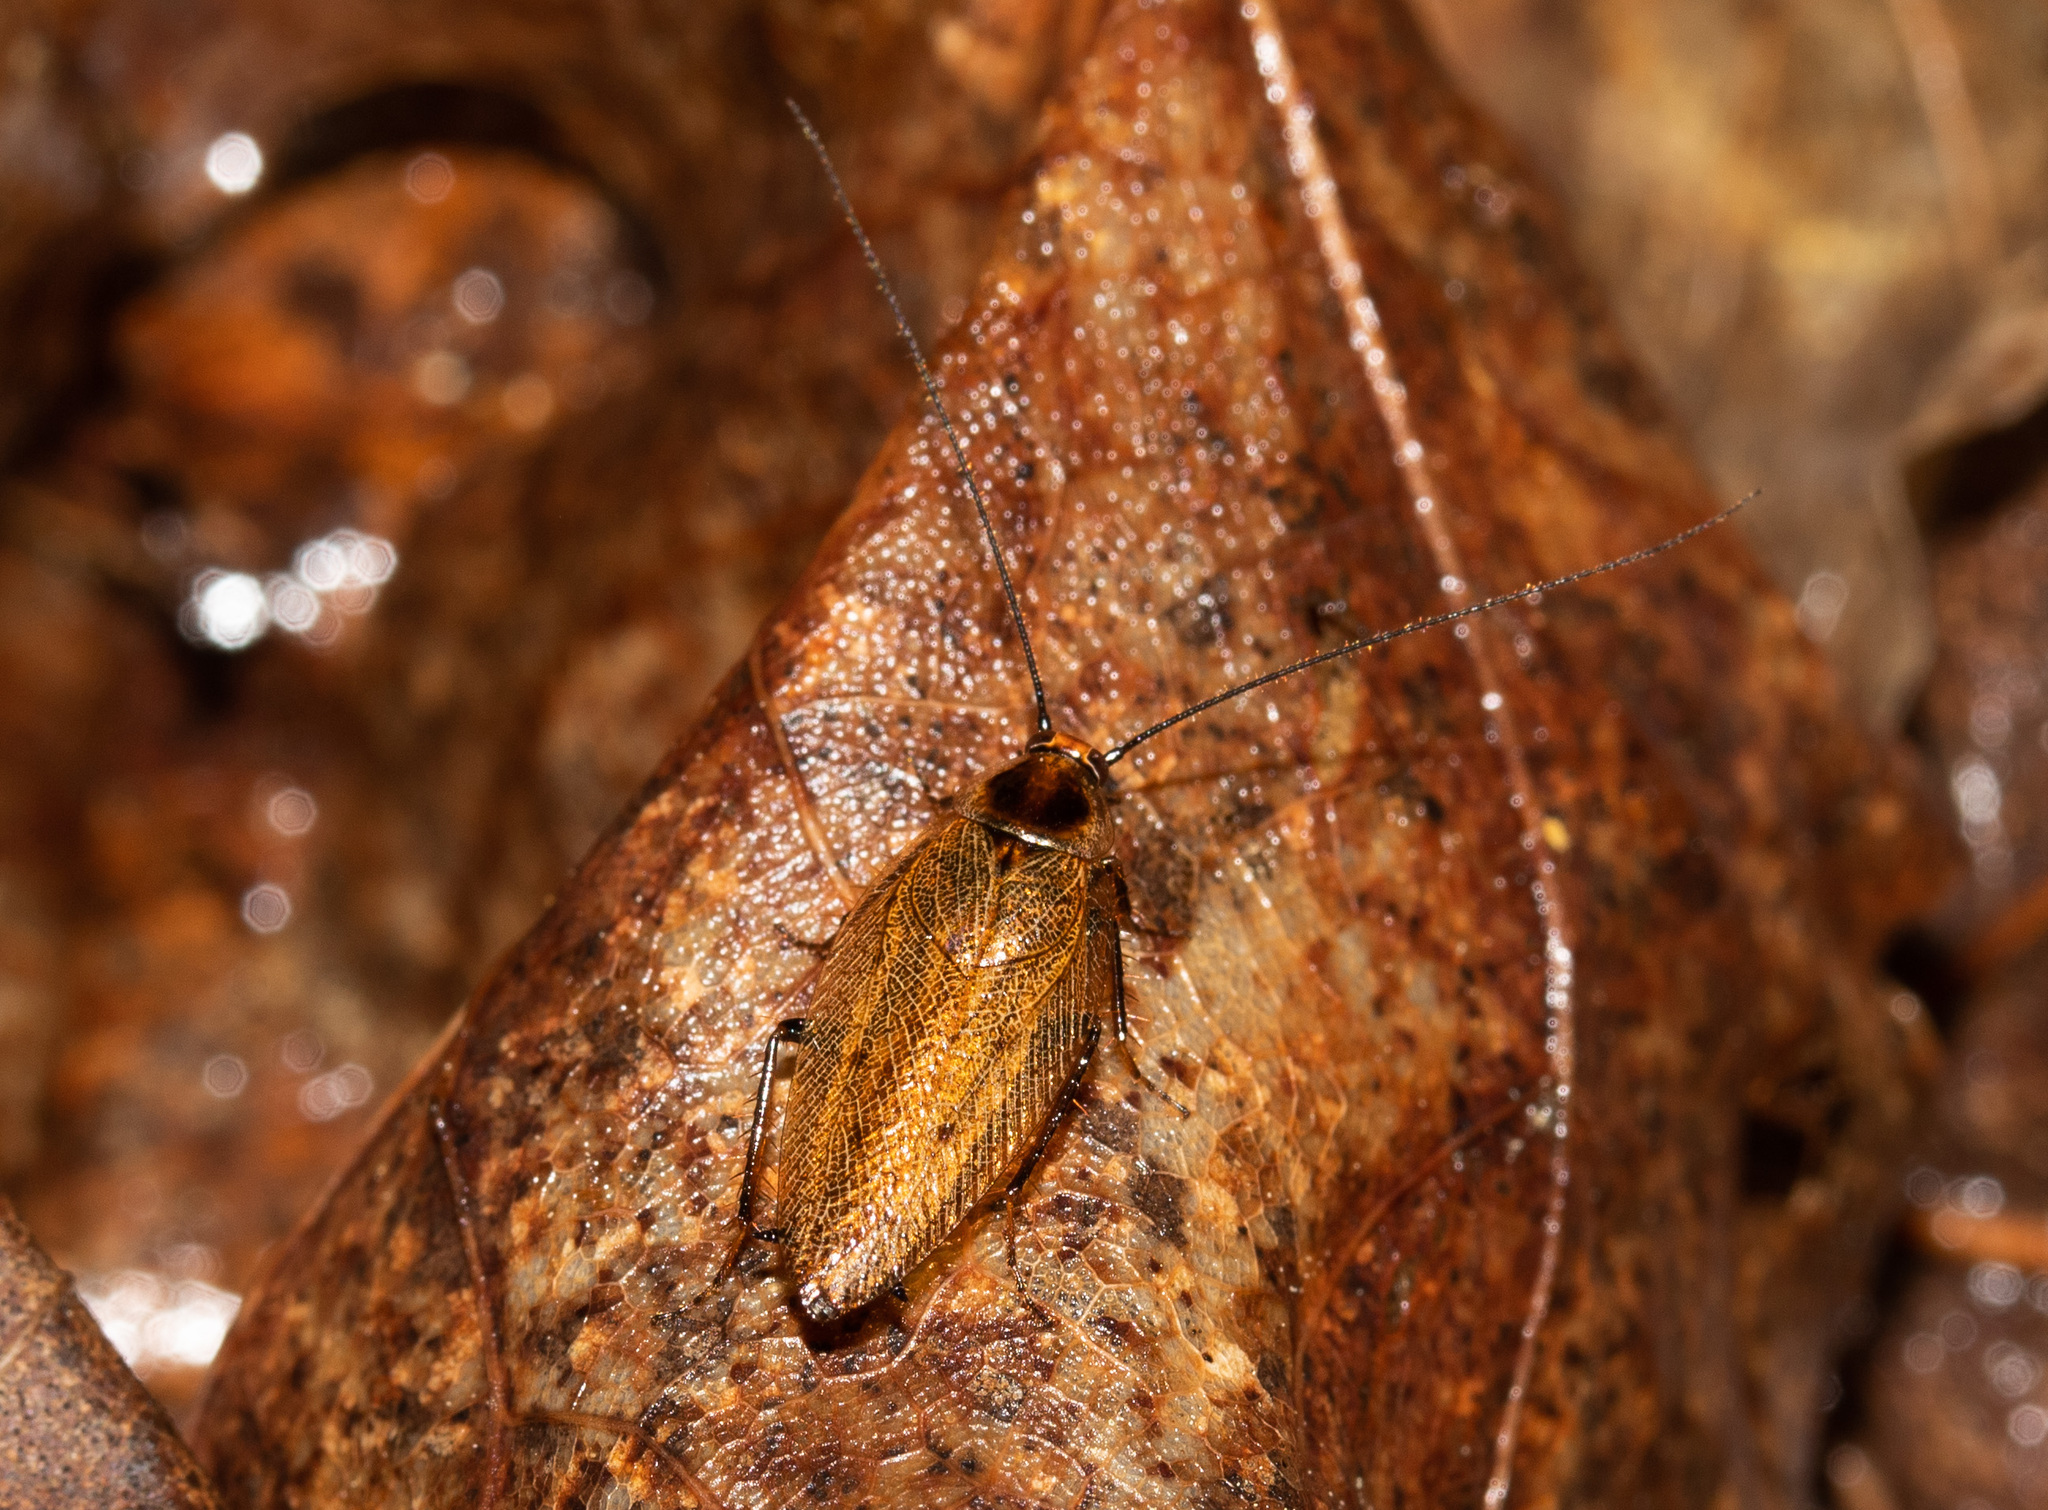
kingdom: Animalia
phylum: Arthropoda
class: Insecta
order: Blattodea
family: Ectobiidae
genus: Ectobius
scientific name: Ectobius lapponicus
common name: Dusky cockroach
